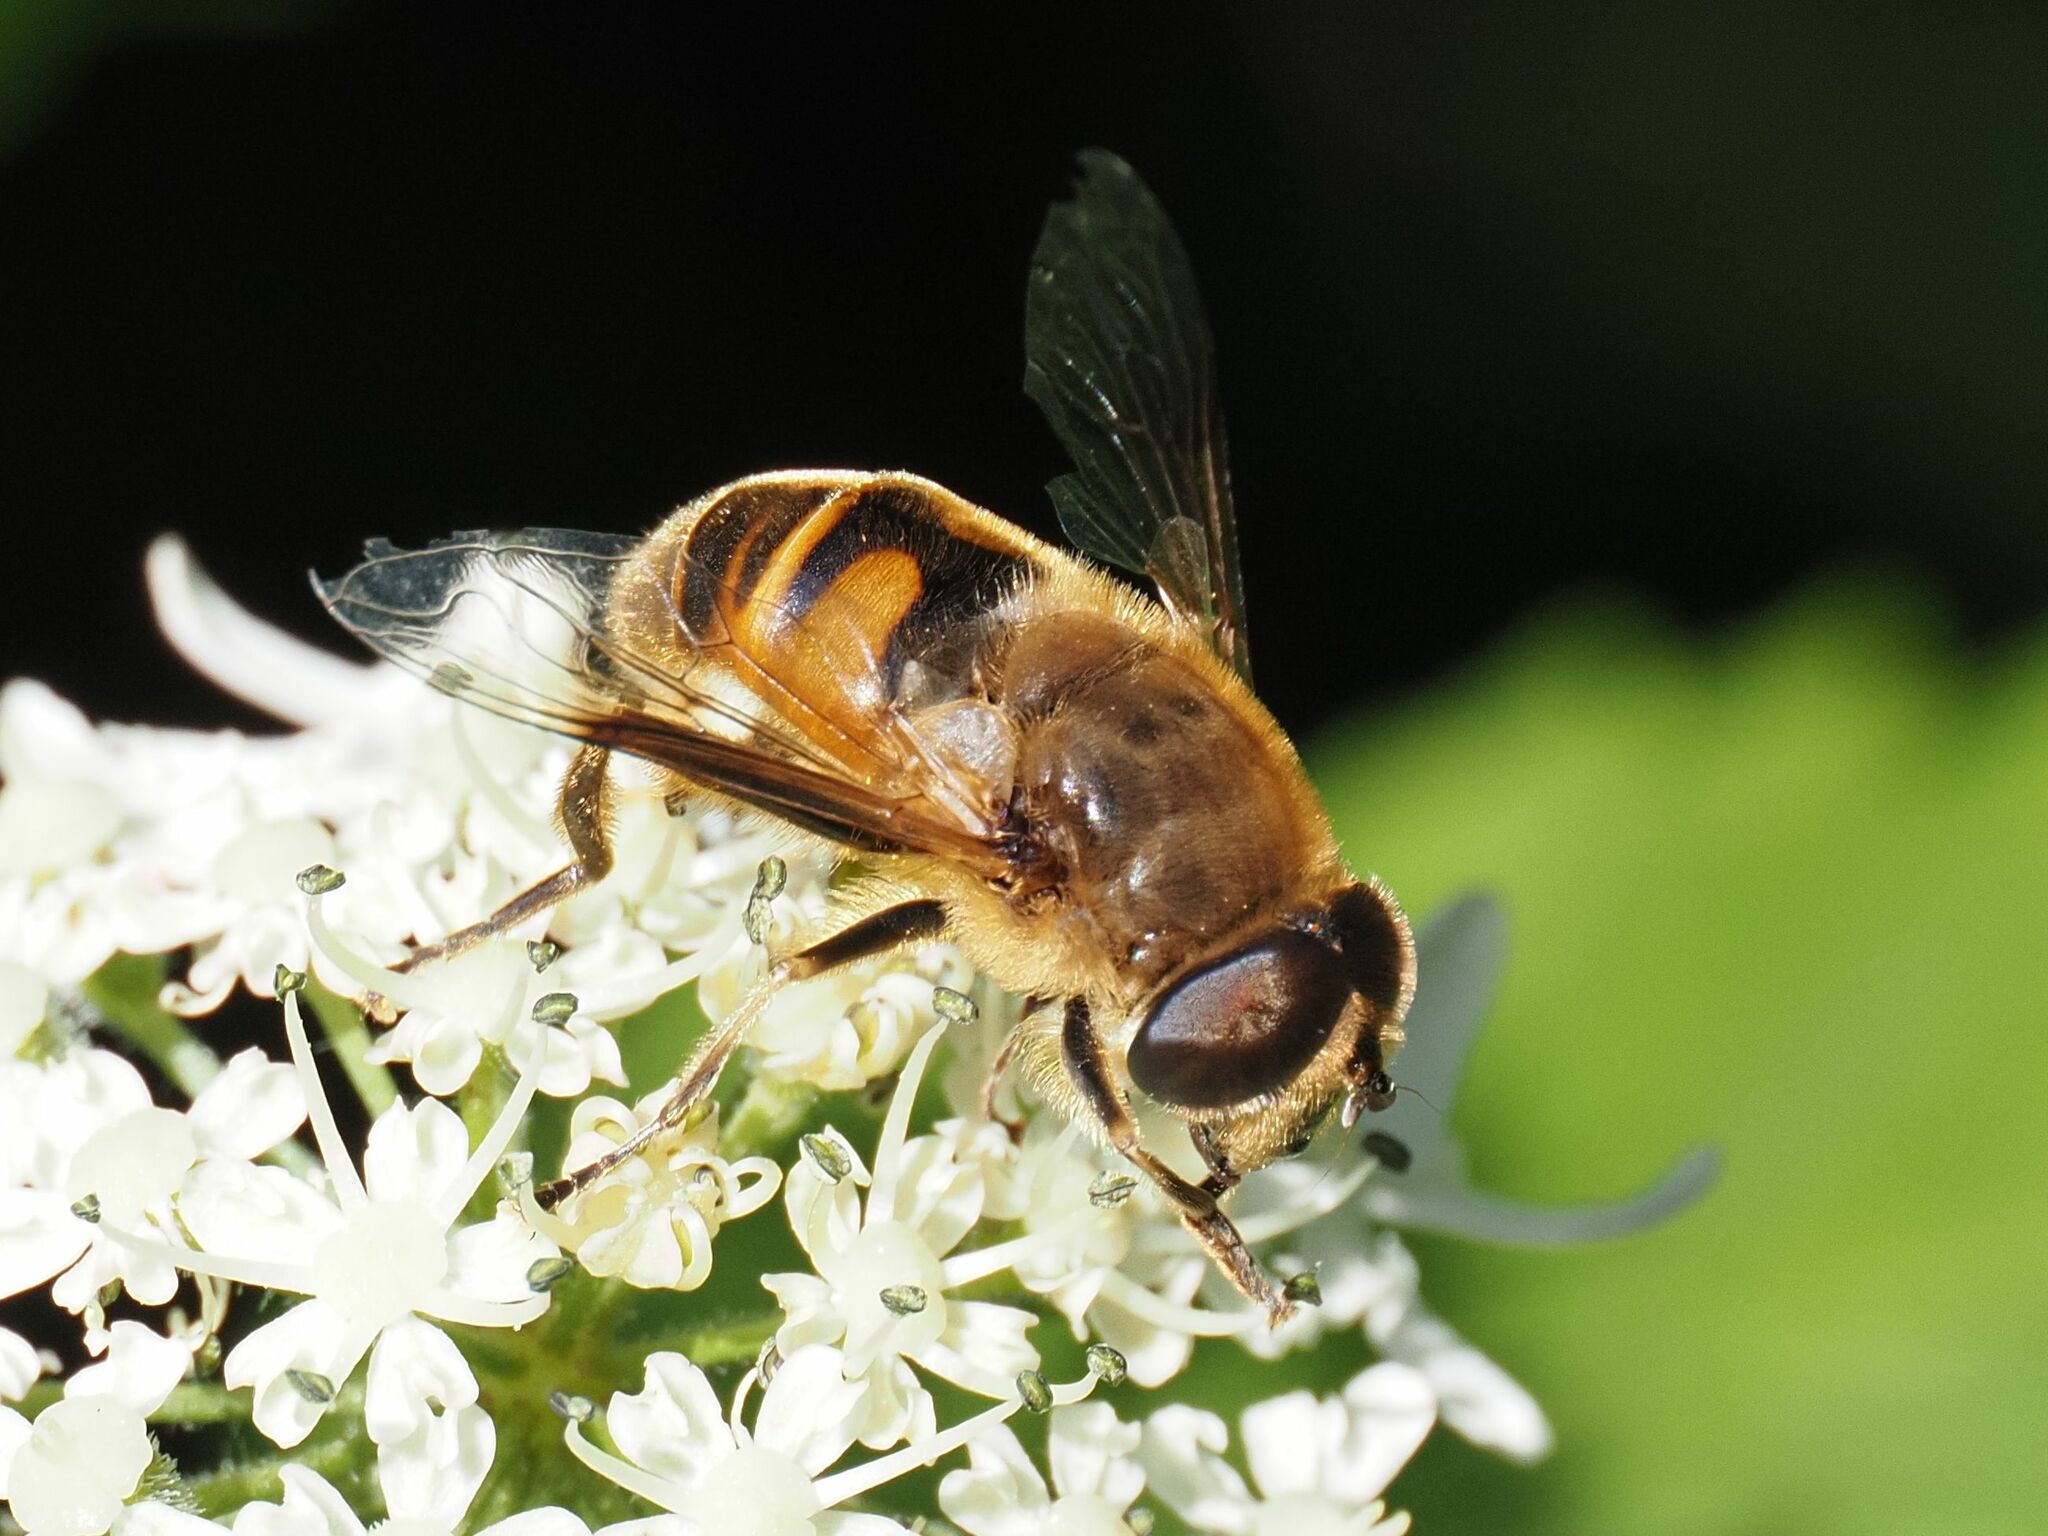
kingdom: Animalia
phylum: Arthropoda
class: Insecta
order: Diptera
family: Syrphidae
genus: Eristalis
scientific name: Eristalis tenax
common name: Drone fly
